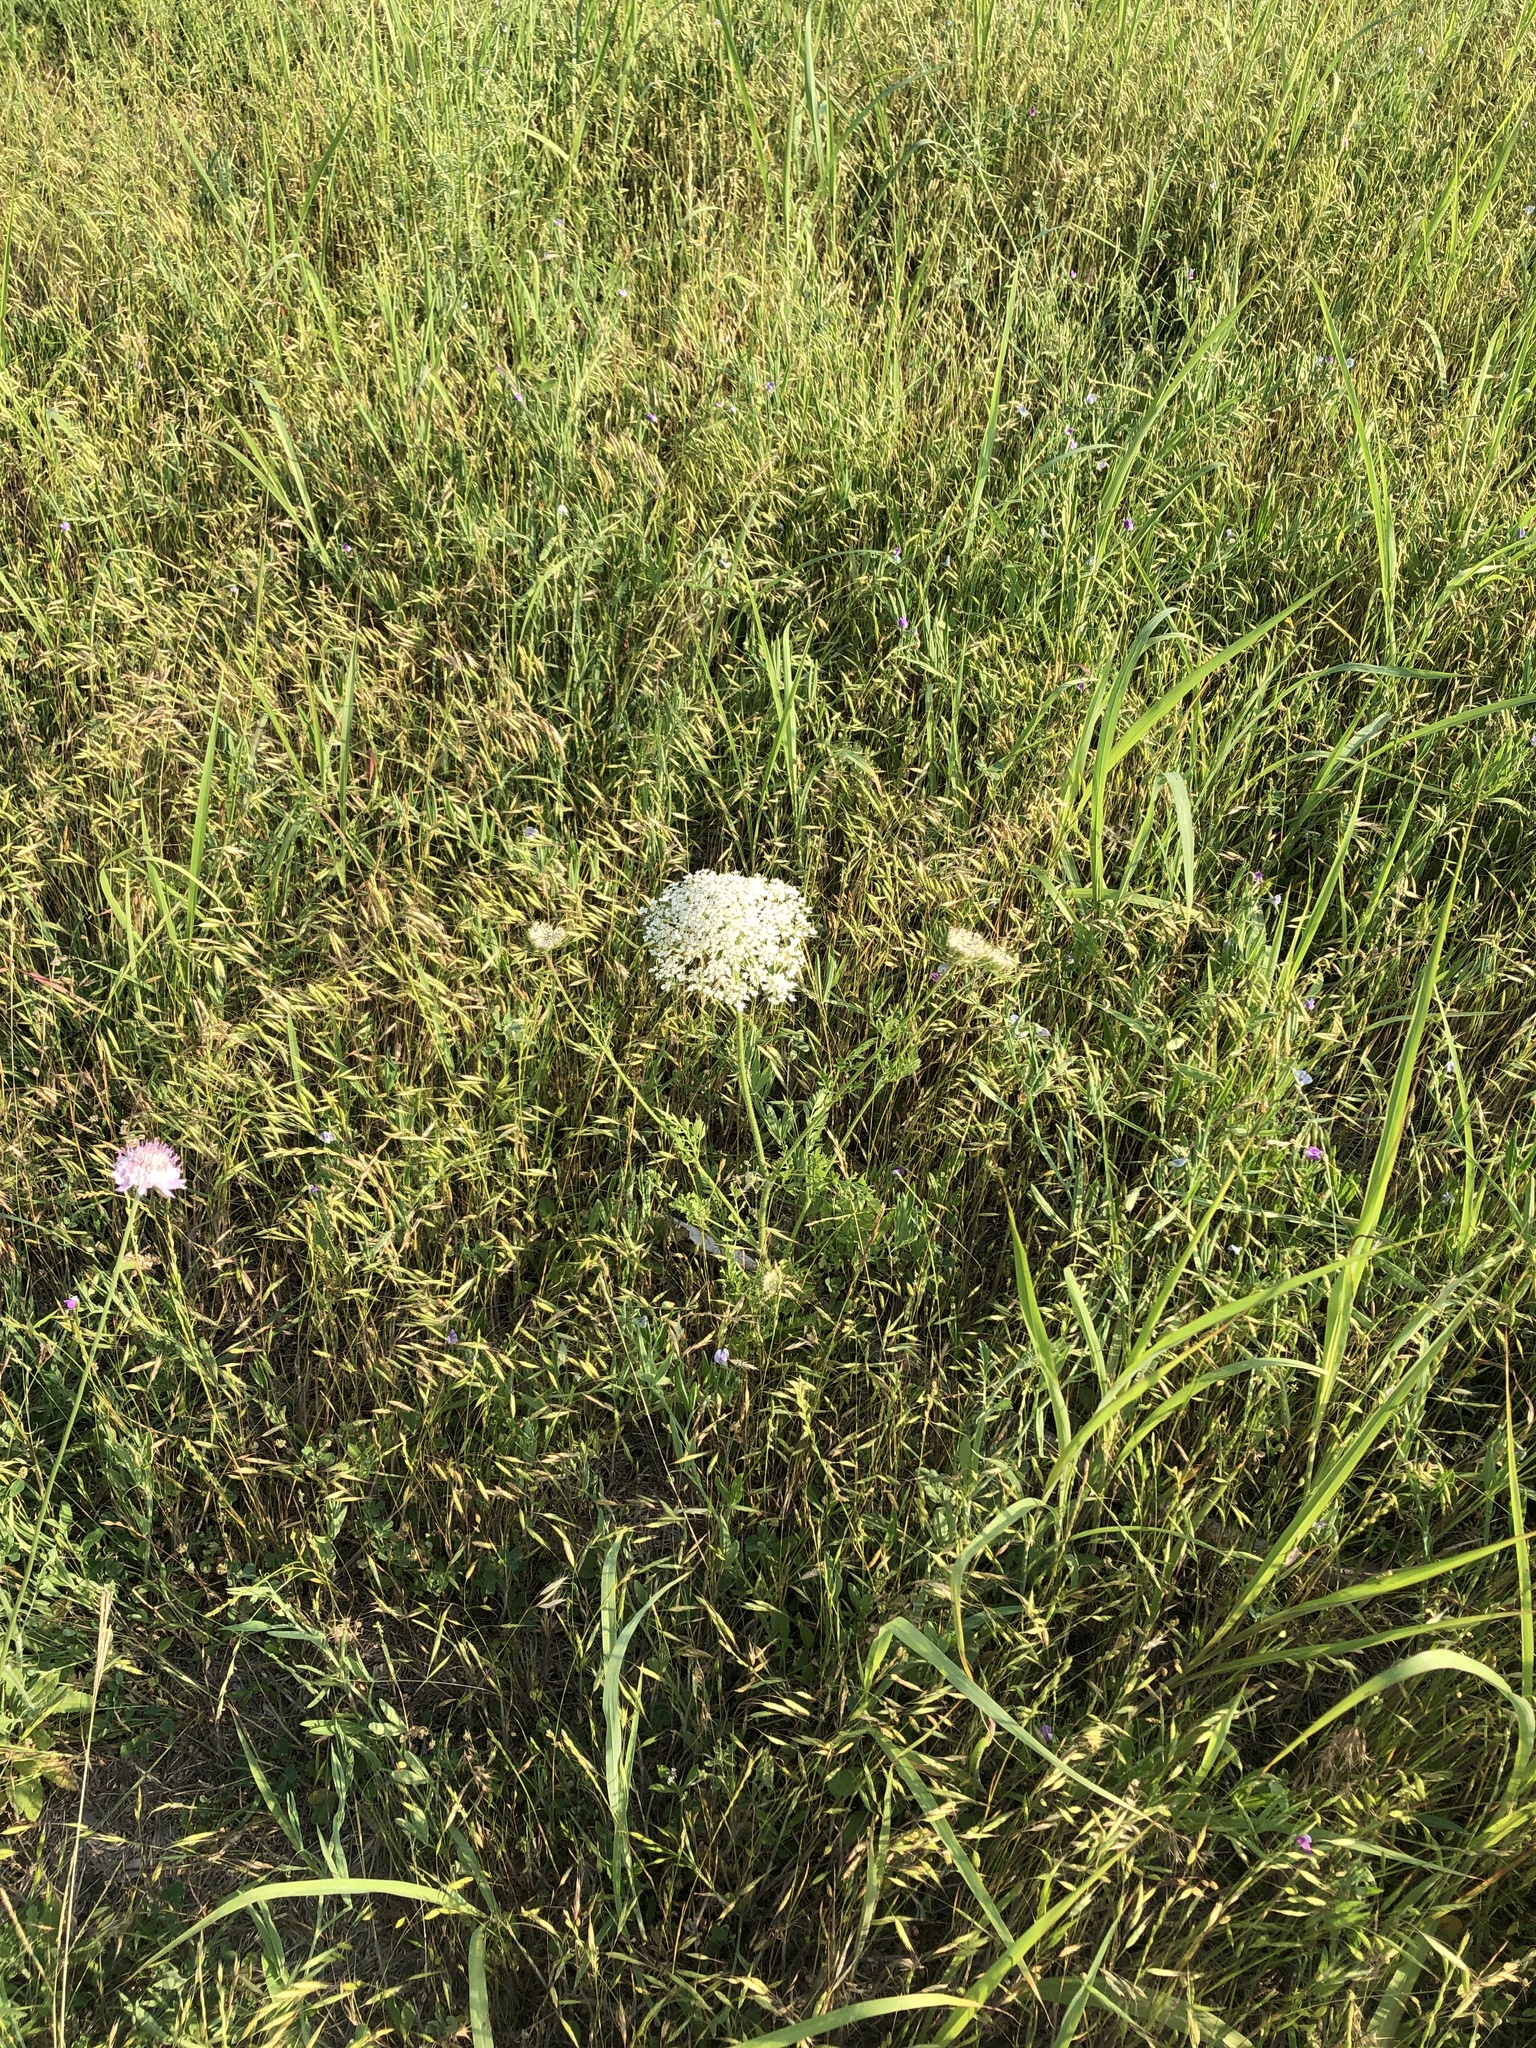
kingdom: Plantae
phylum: Tracheophyta
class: Magnoliopsida
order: Apiales
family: Apiaceae
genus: Daucus
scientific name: Daucus carota
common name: Wild carrot
